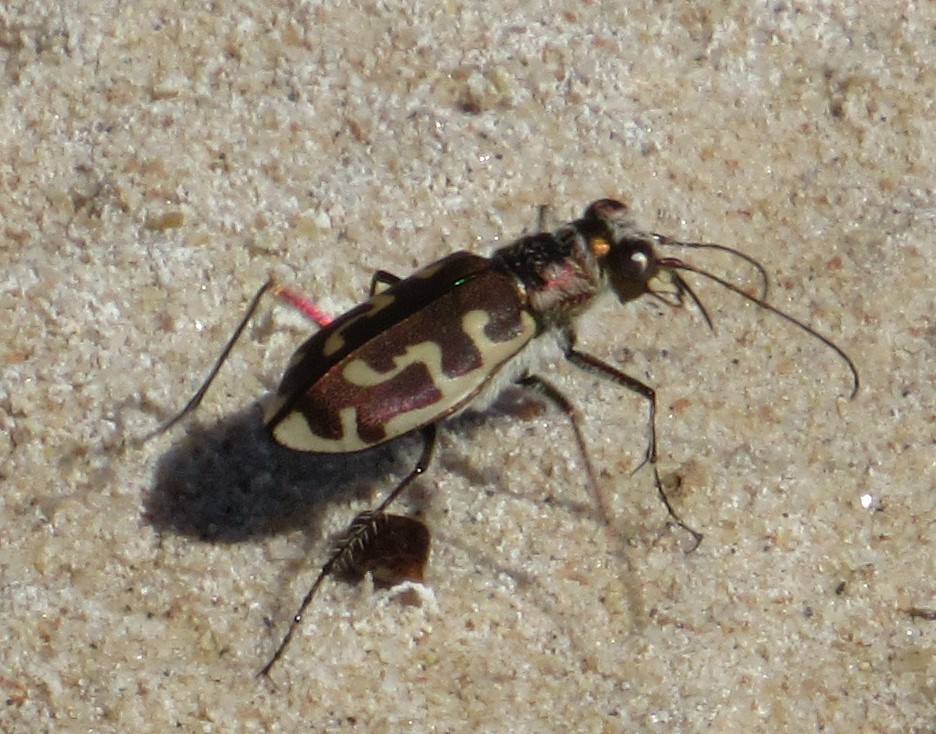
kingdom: Animalia
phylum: Arthropoda
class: Insecta
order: Coleoptera
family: Carabidae
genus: Cicindela
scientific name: Cicindela hirticollis
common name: Hairy-necked tiger beetle
